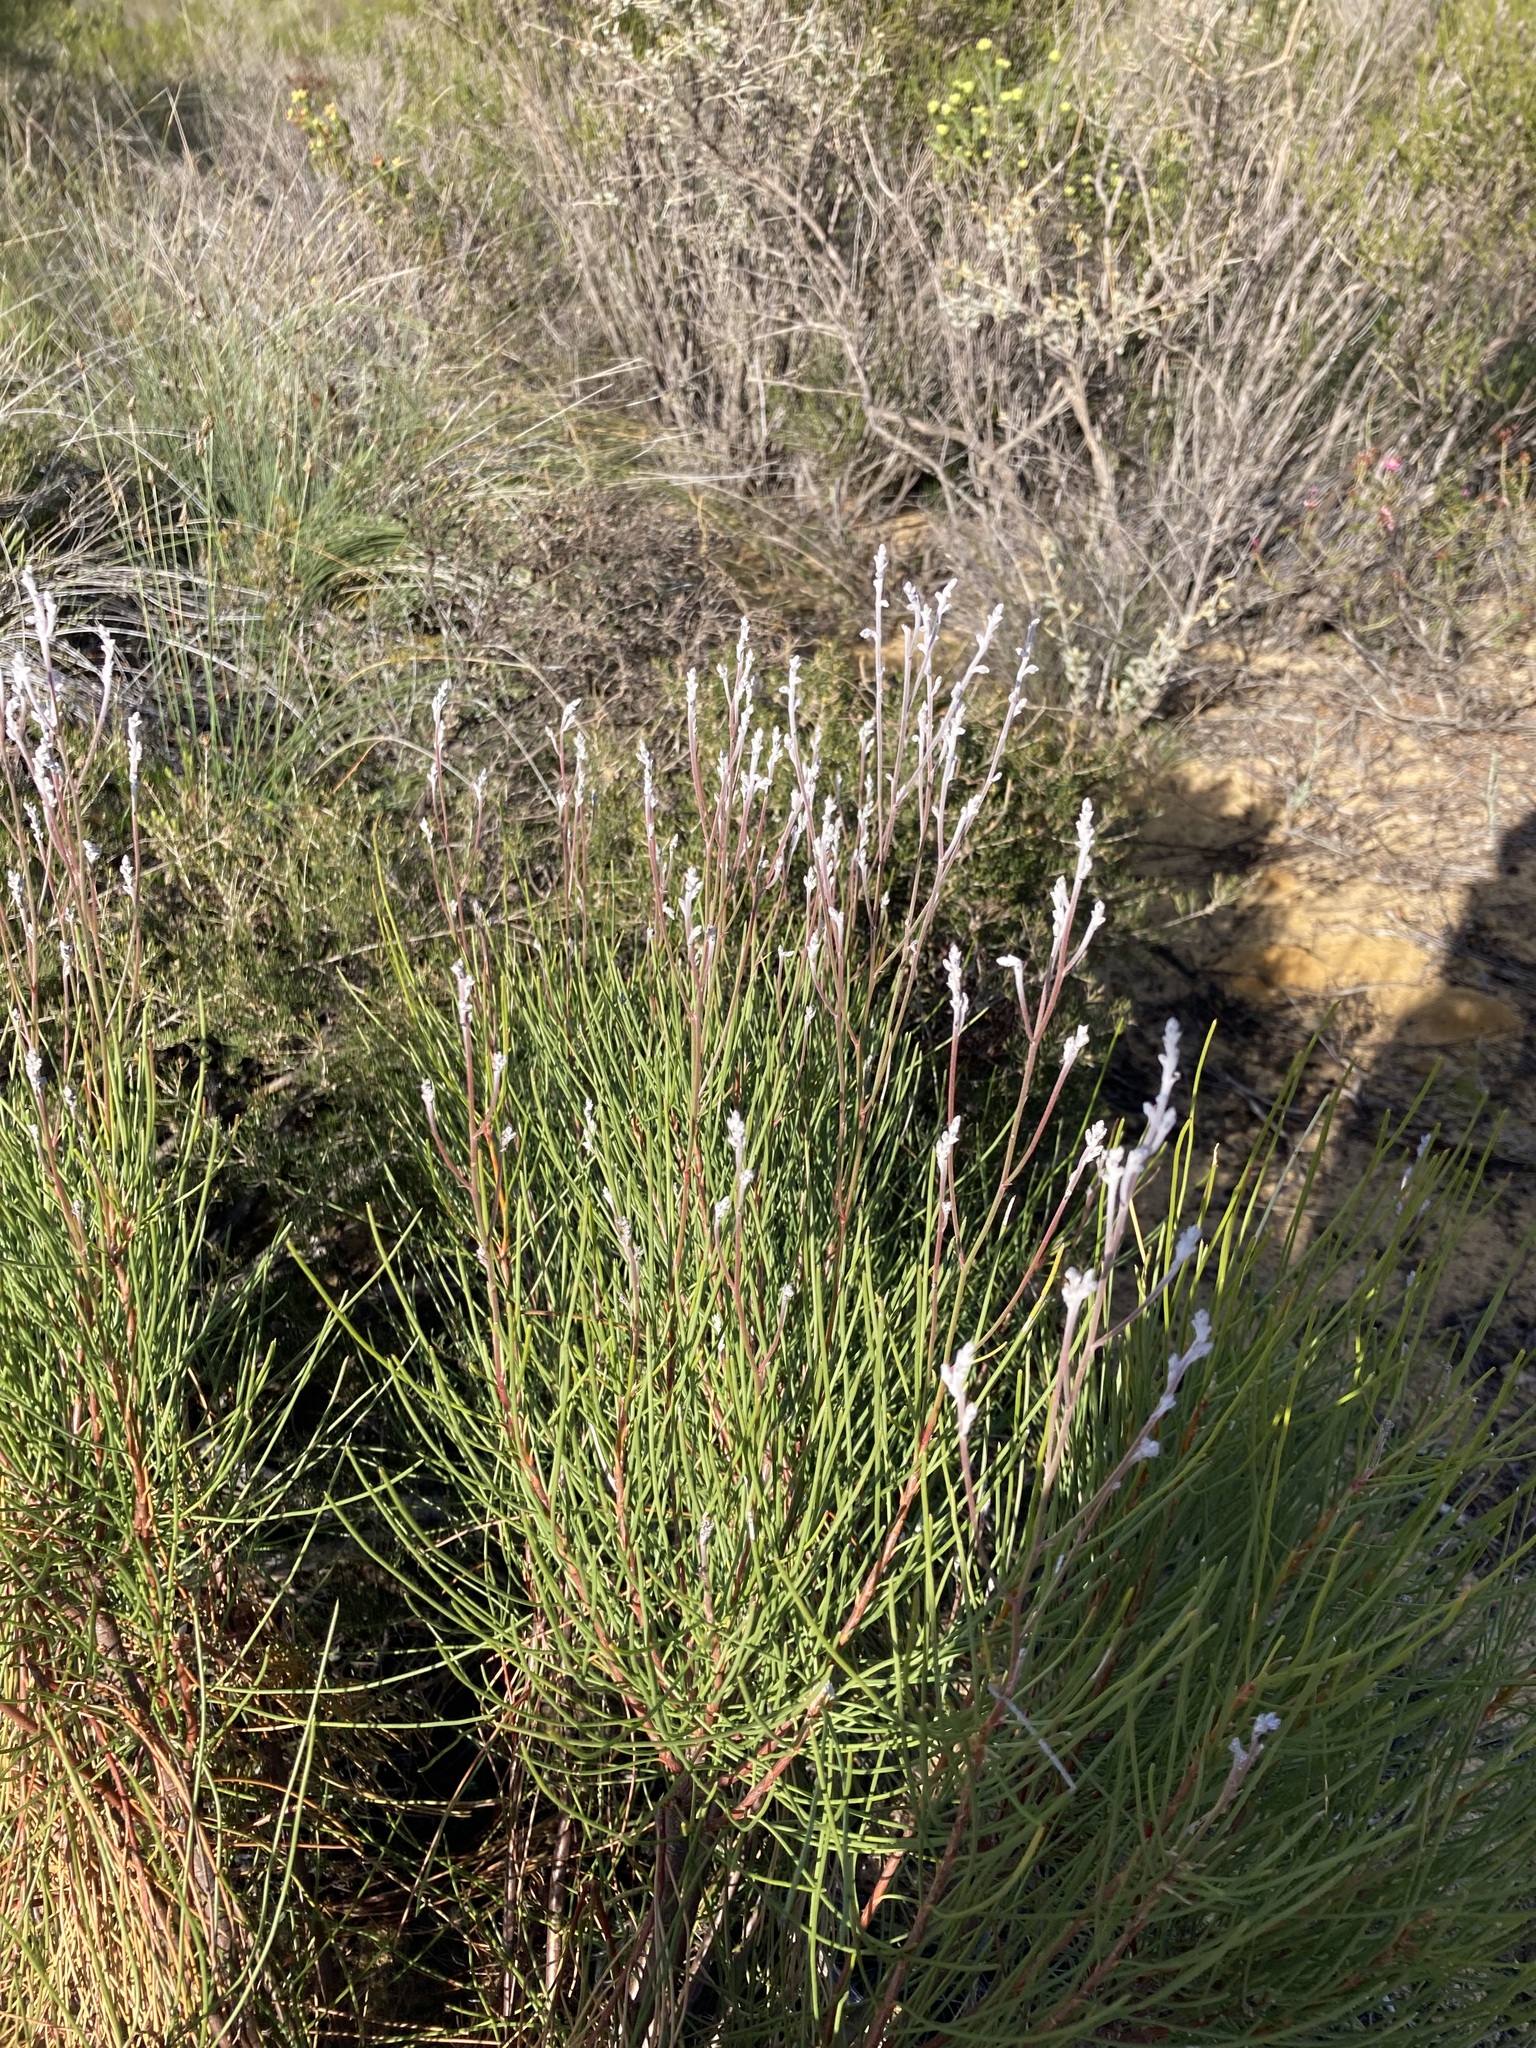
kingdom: Plantae
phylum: Tracheophyta
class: Magnoliopsida
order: Proteales
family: Proteaceae
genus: Conospermum
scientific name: Conospermum stoechadis
